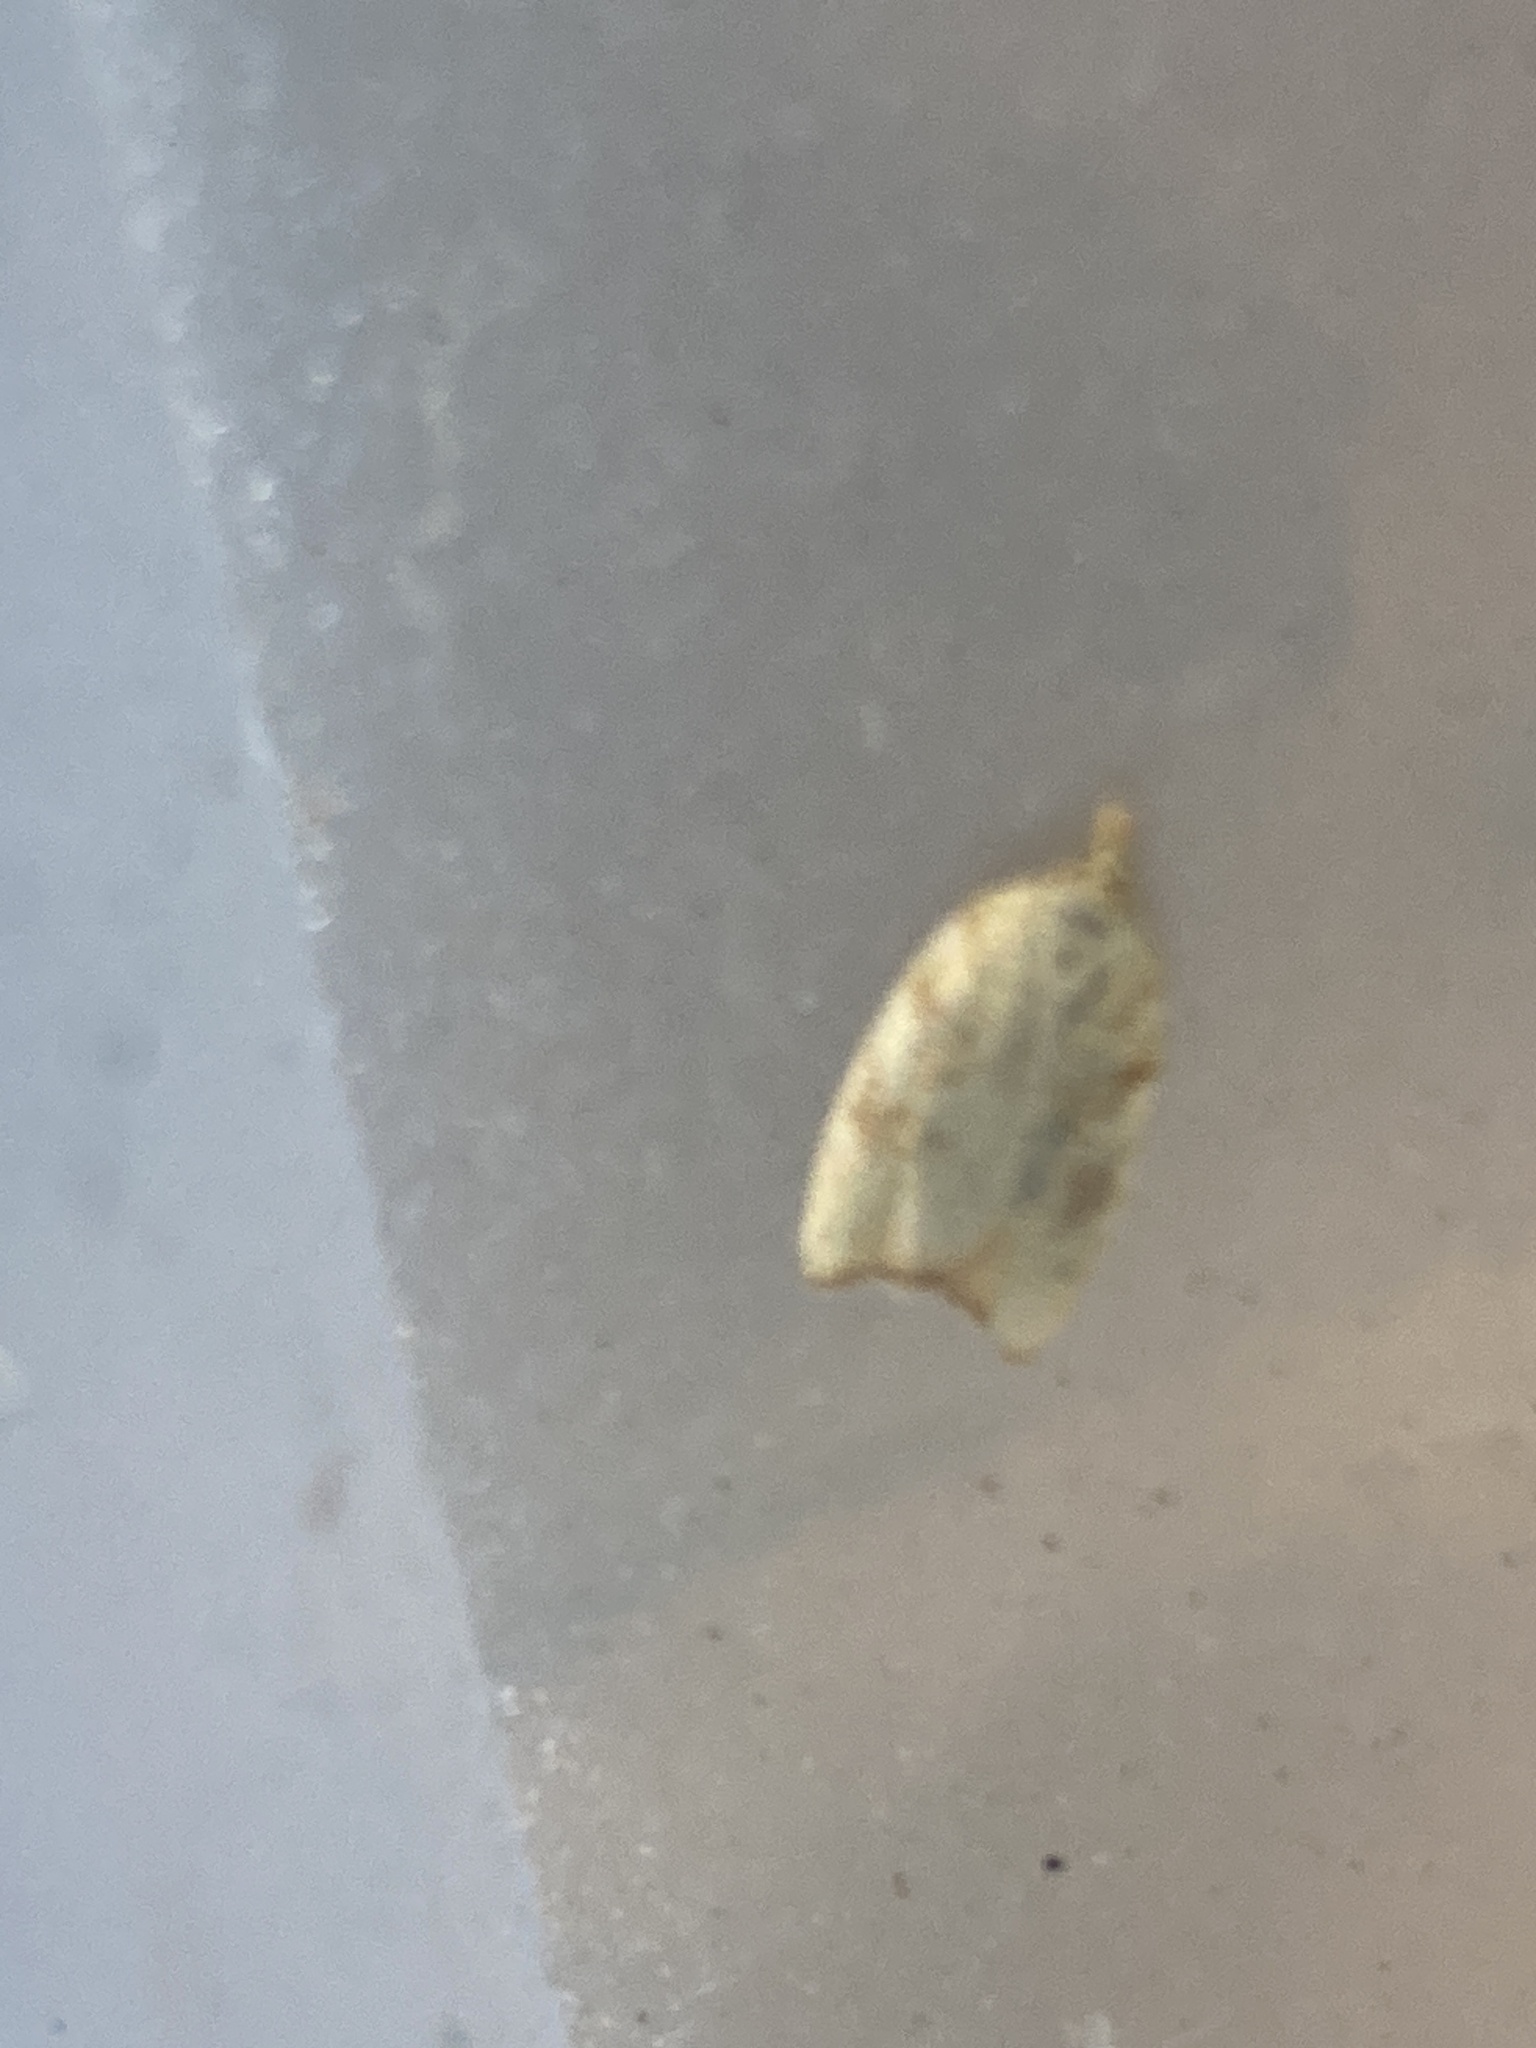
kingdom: Animalia
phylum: Arthropoda
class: Insecta
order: Lepidoptera
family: Tortricidae
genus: Aleimma
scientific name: Aleimma loeflingiana
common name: Yellow oak button
